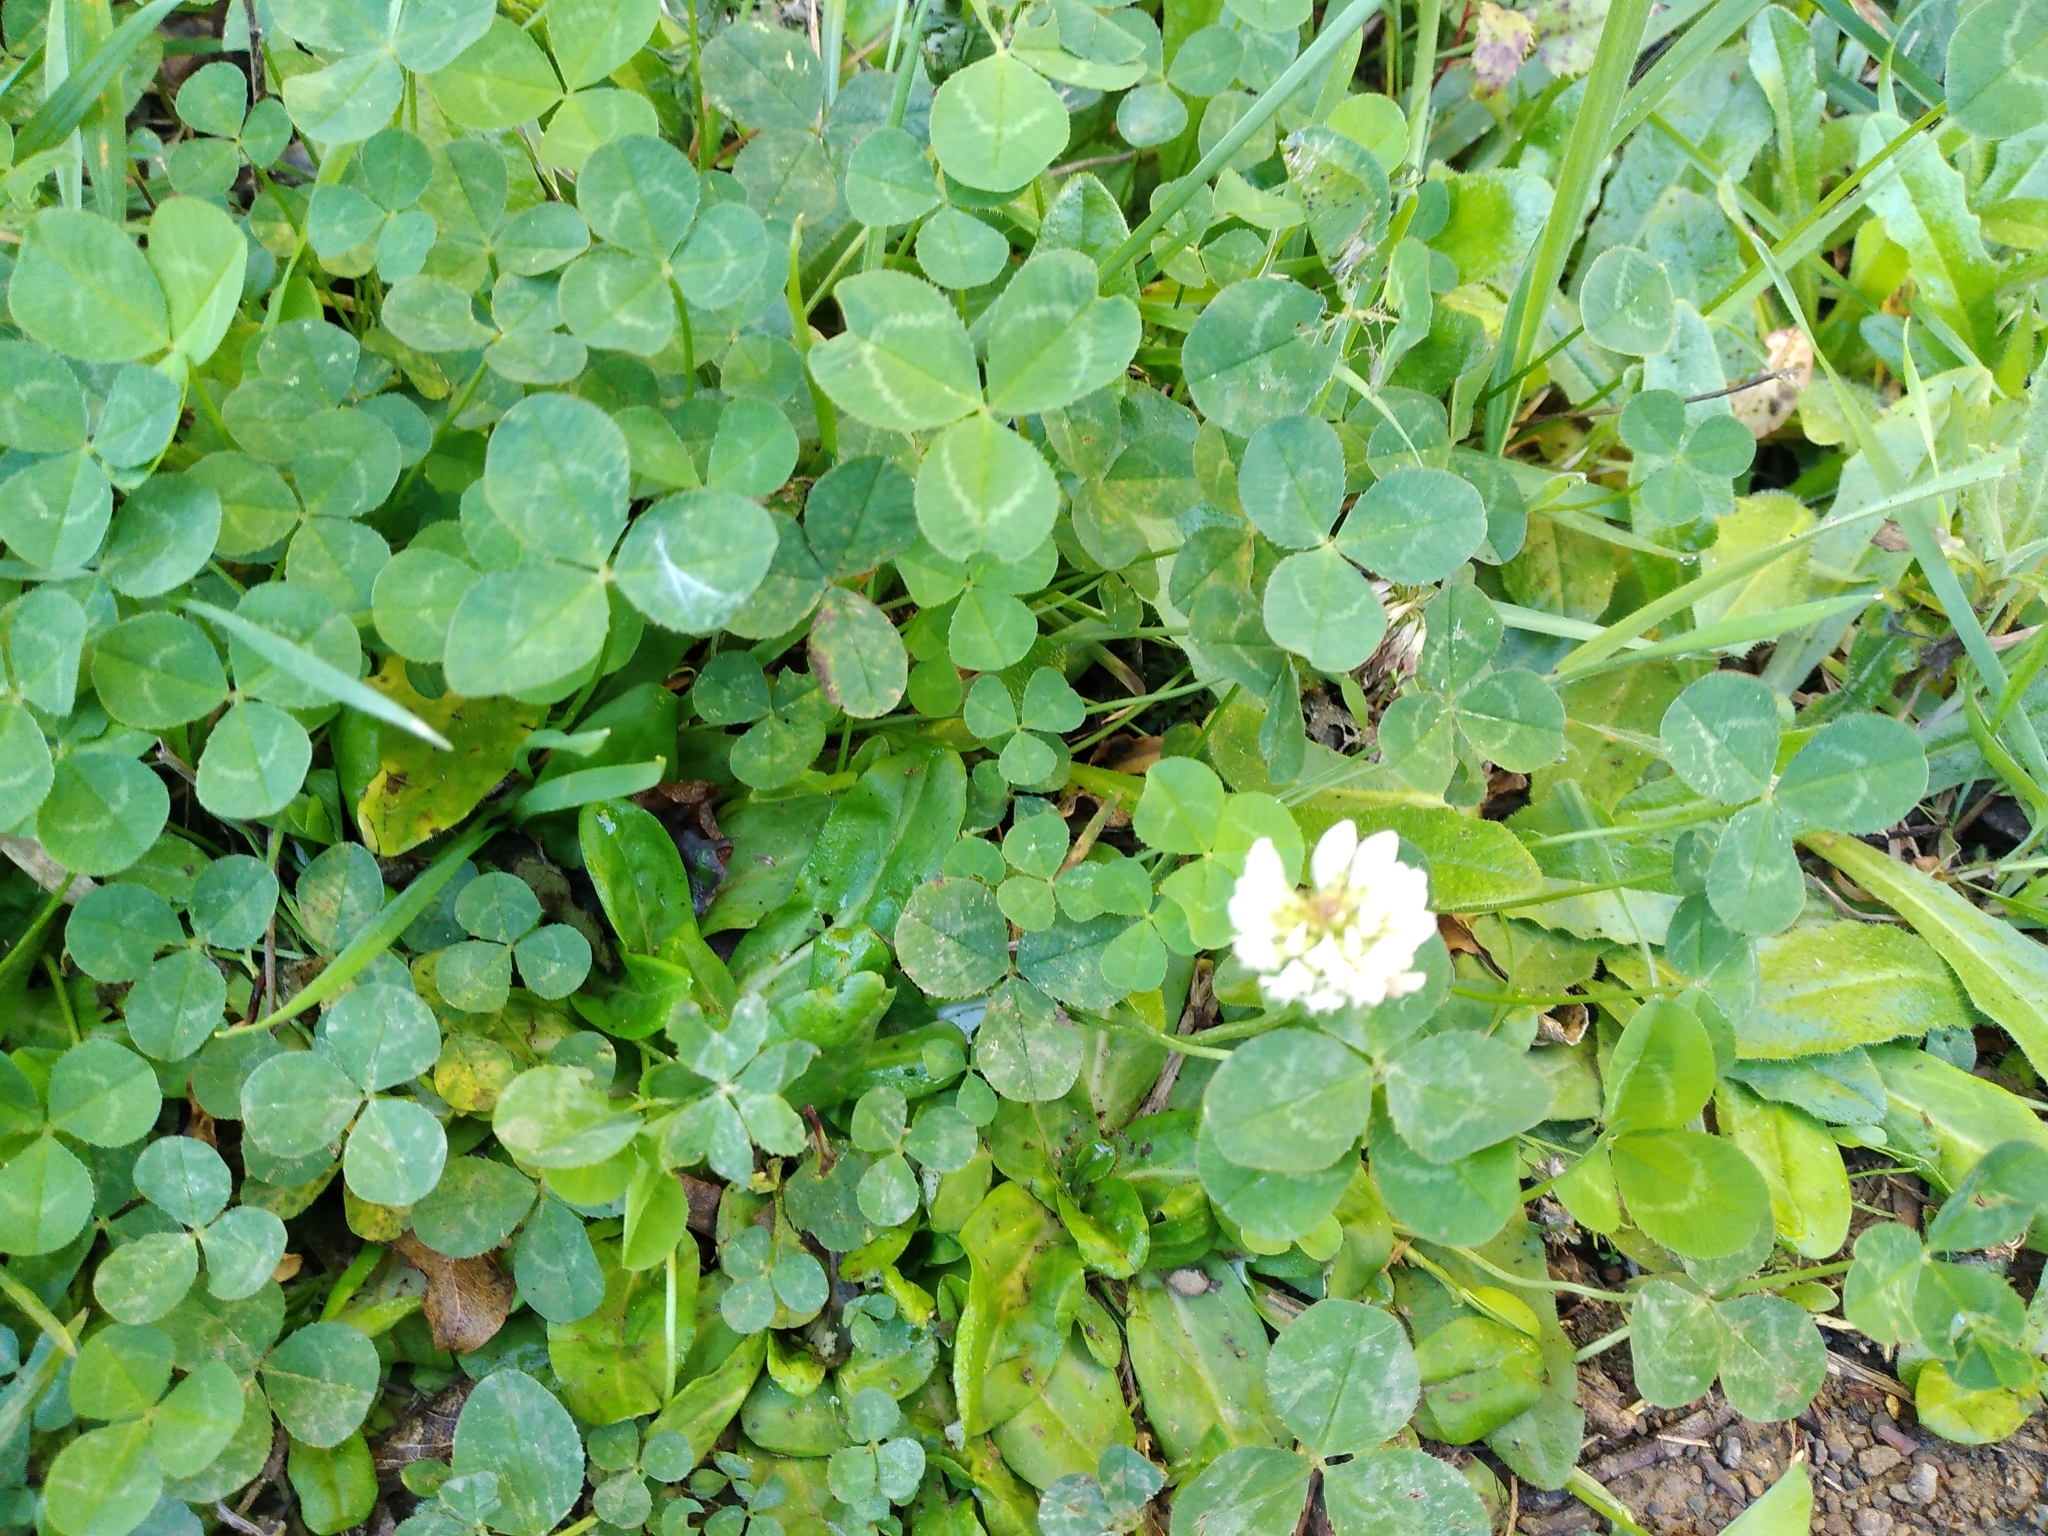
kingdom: Plantae
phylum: Tracheophyta
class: Magnoliopsida
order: Fabales
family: Fabaceae
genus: Trifolium
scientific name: Trifolium repens
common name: White clover
